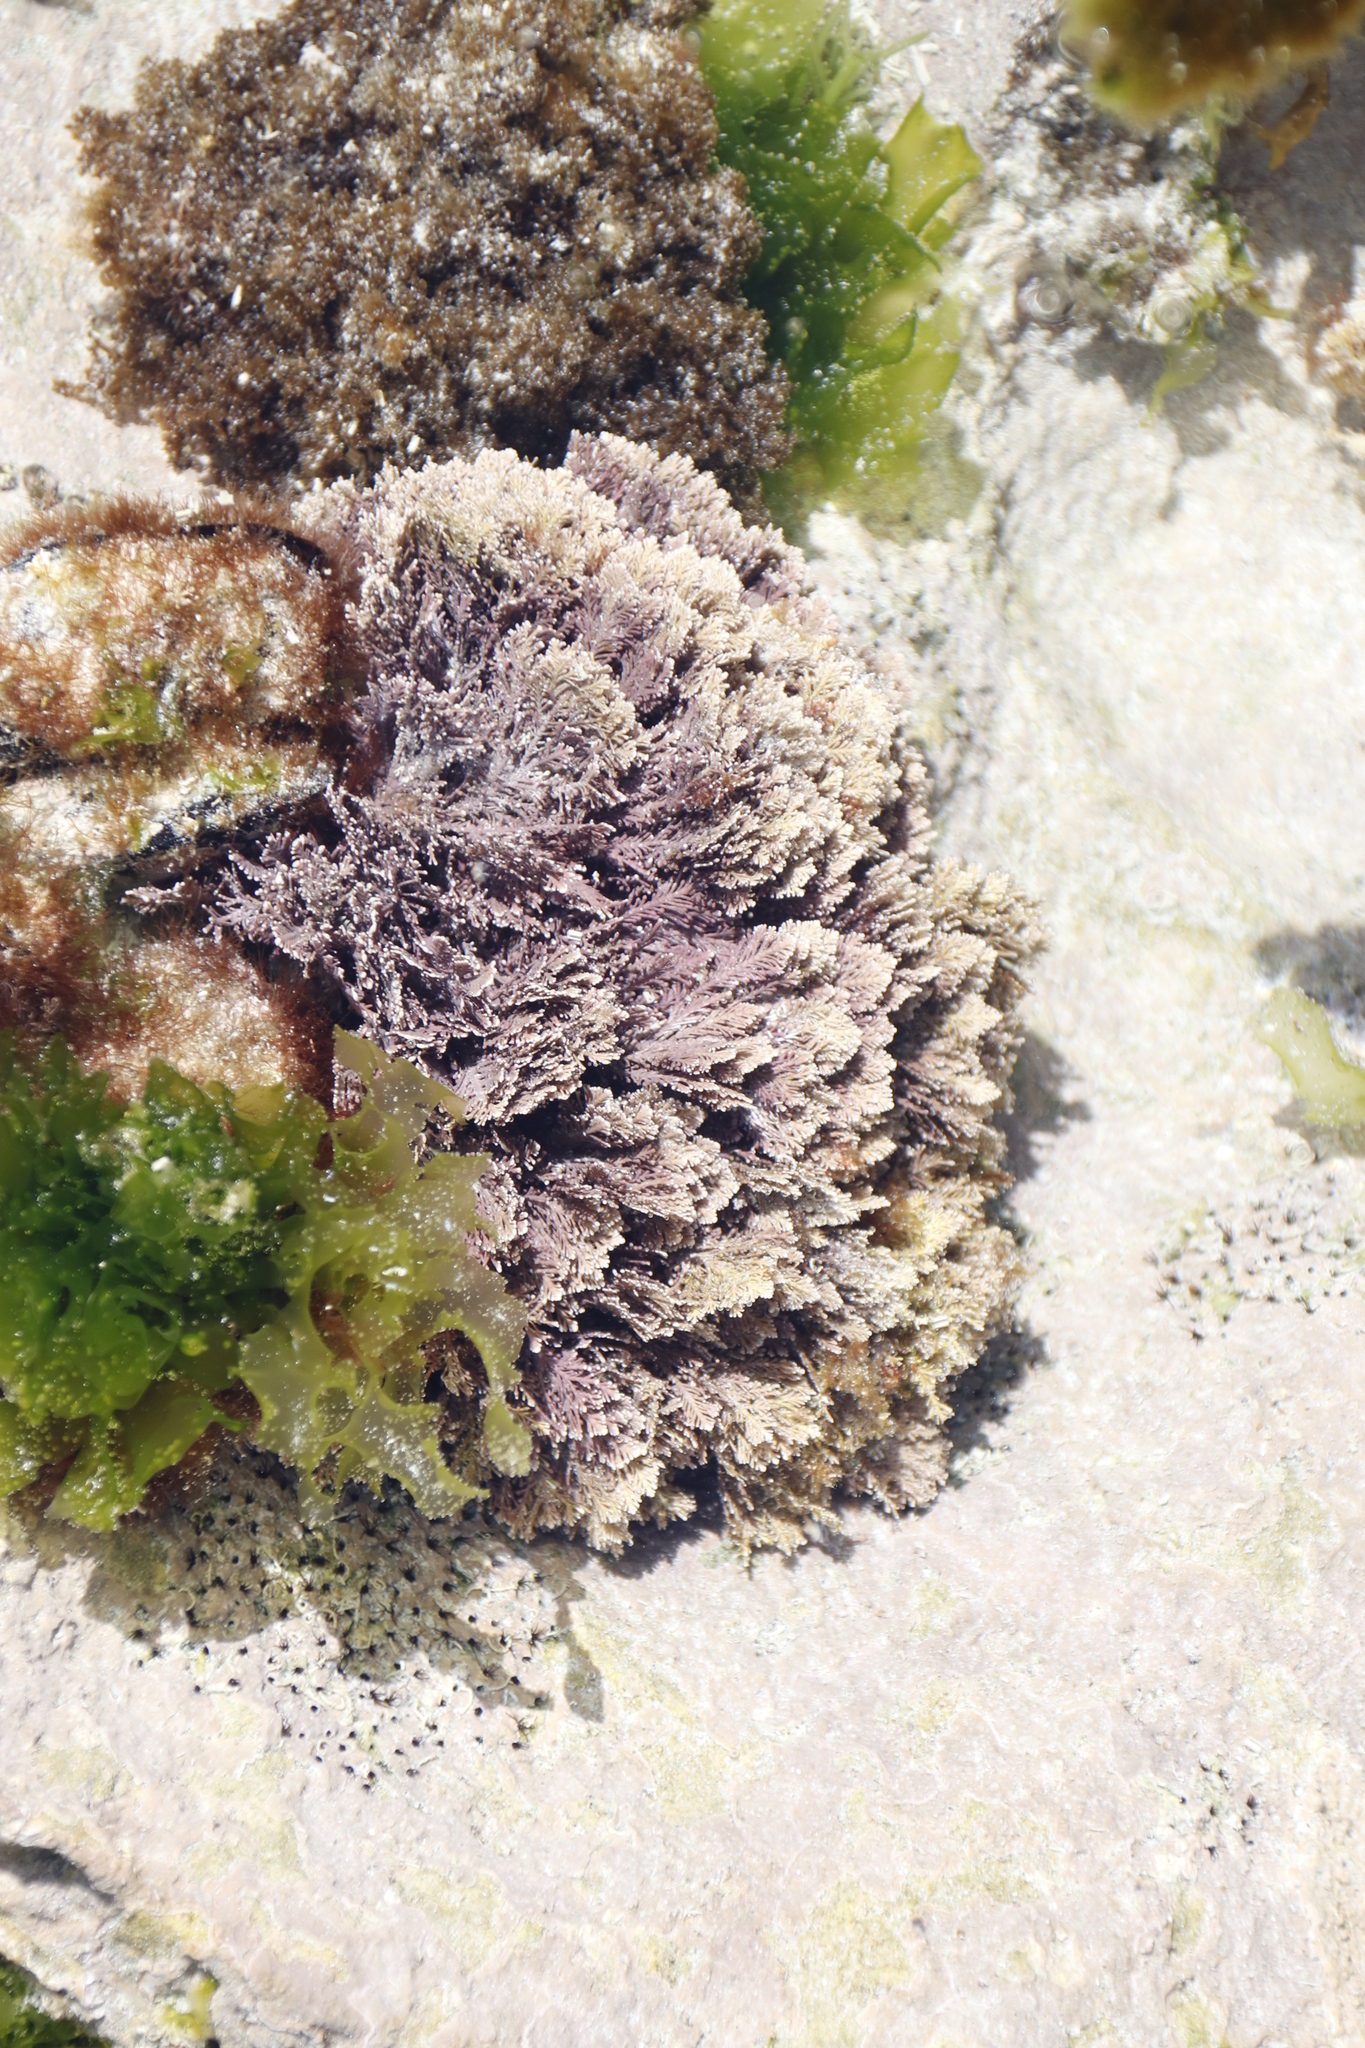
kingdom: Plantae
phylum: Rhodophyta
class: Florideophyceae
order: Corallinales
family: Corallinaceae
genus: Corallina
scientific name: Corallina officinalis
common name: Coral weed
